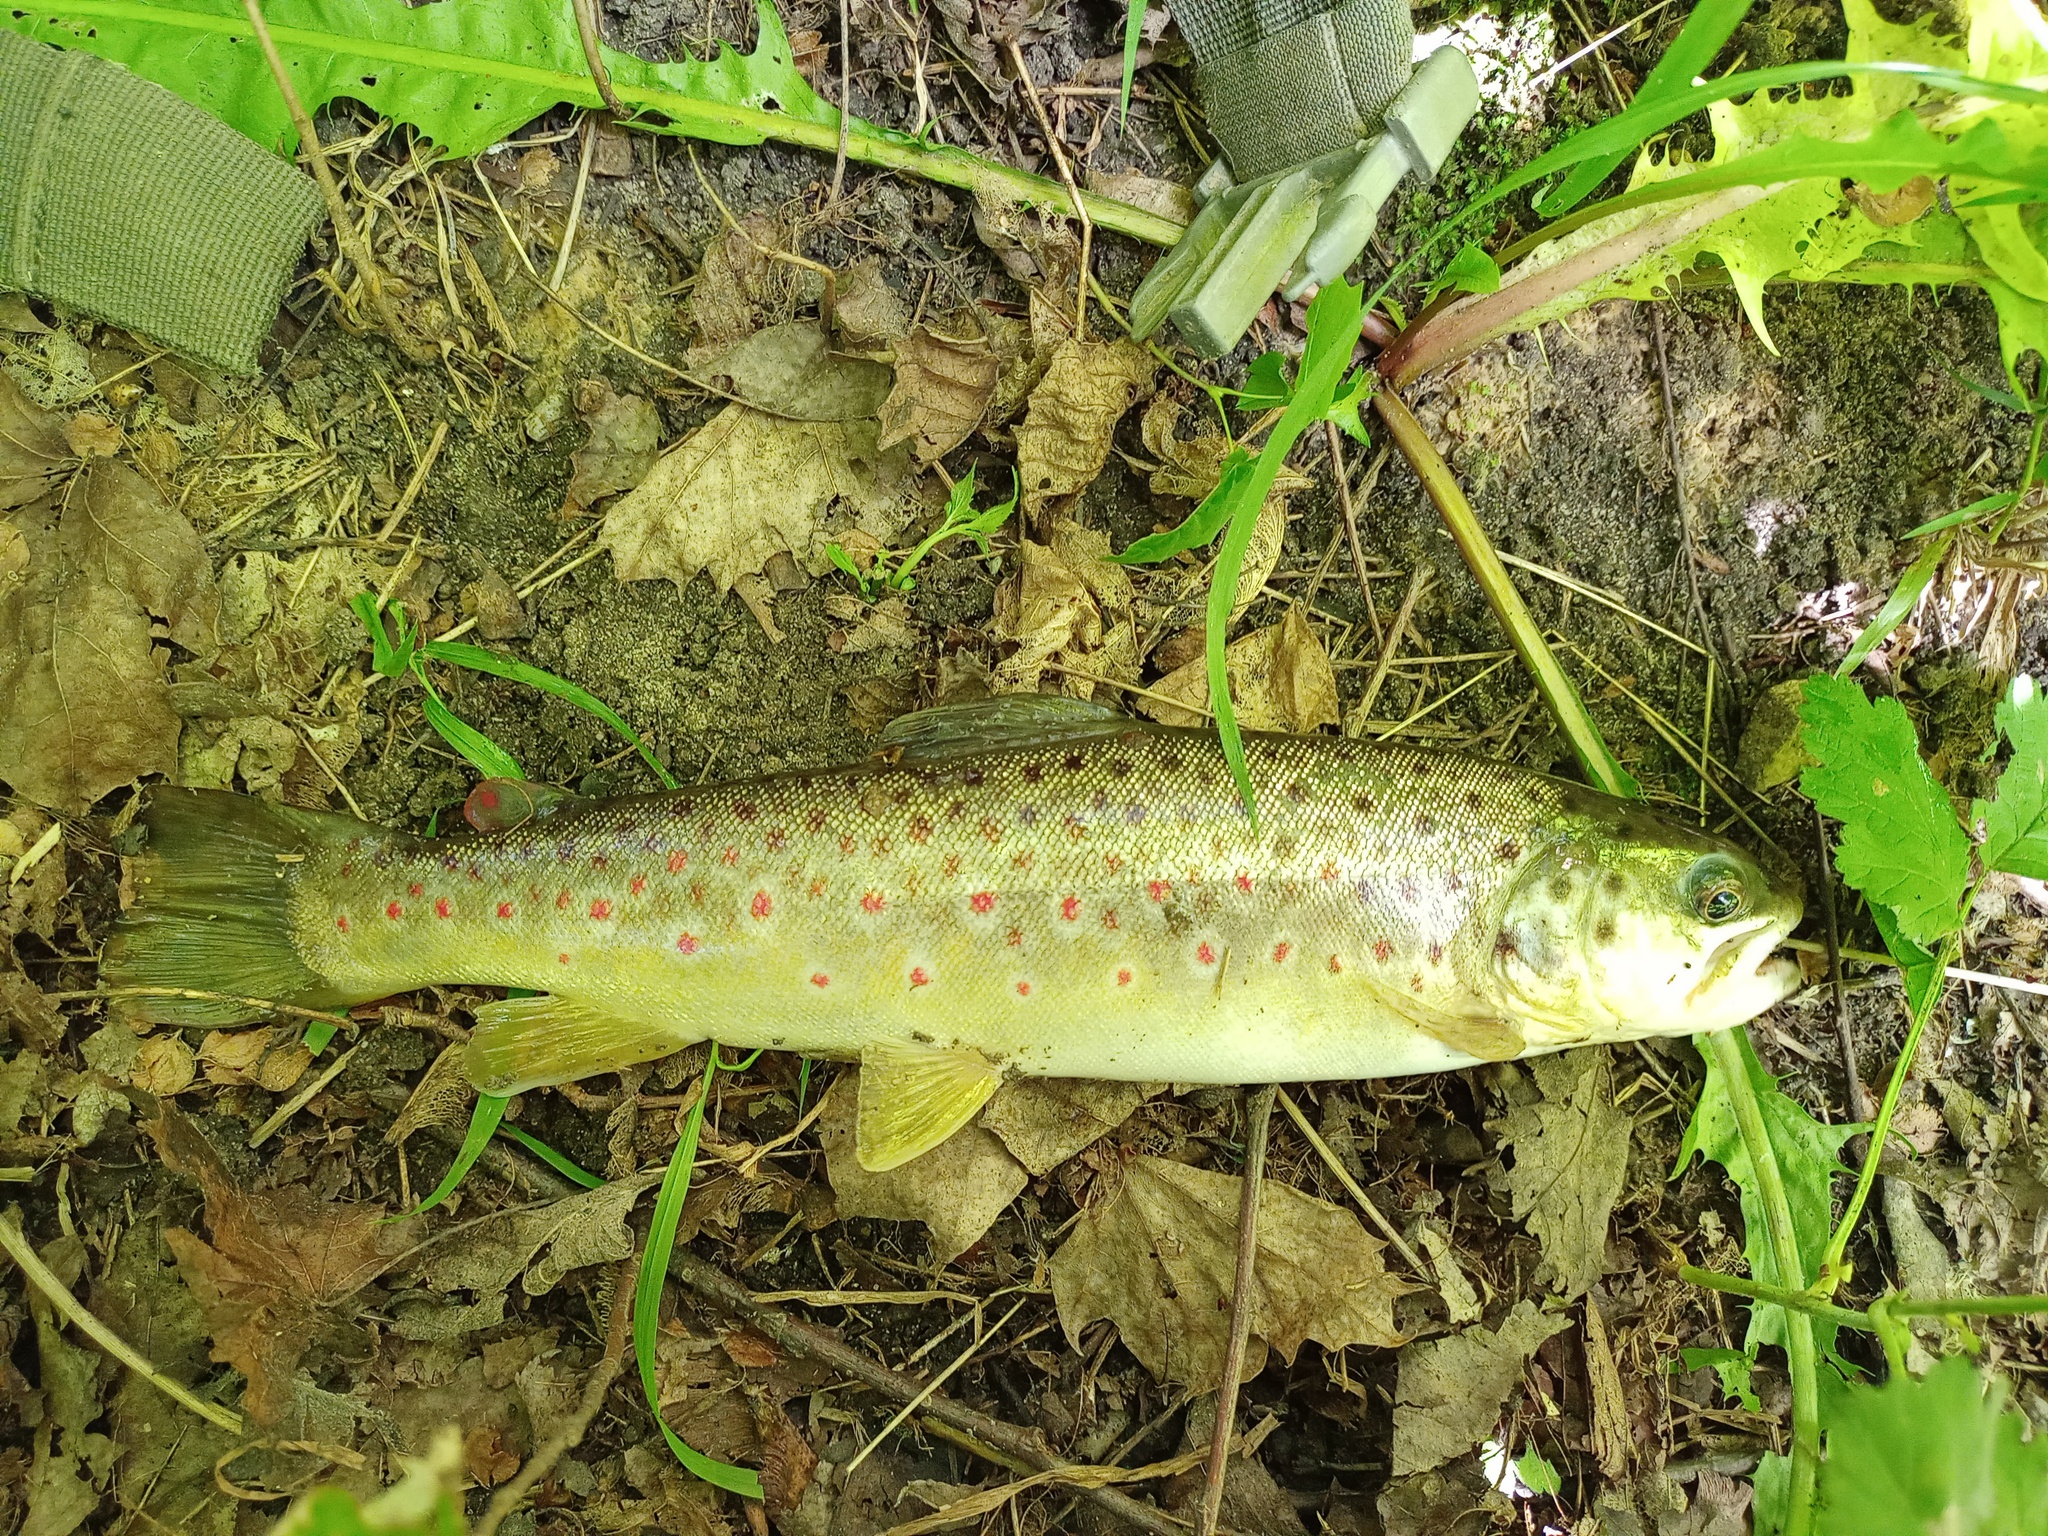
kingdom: Animalia
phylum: Chordata
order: Salmoniformes
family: Salmonidae
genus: Salmo
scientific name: Salmo trutta
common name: Brown trout
